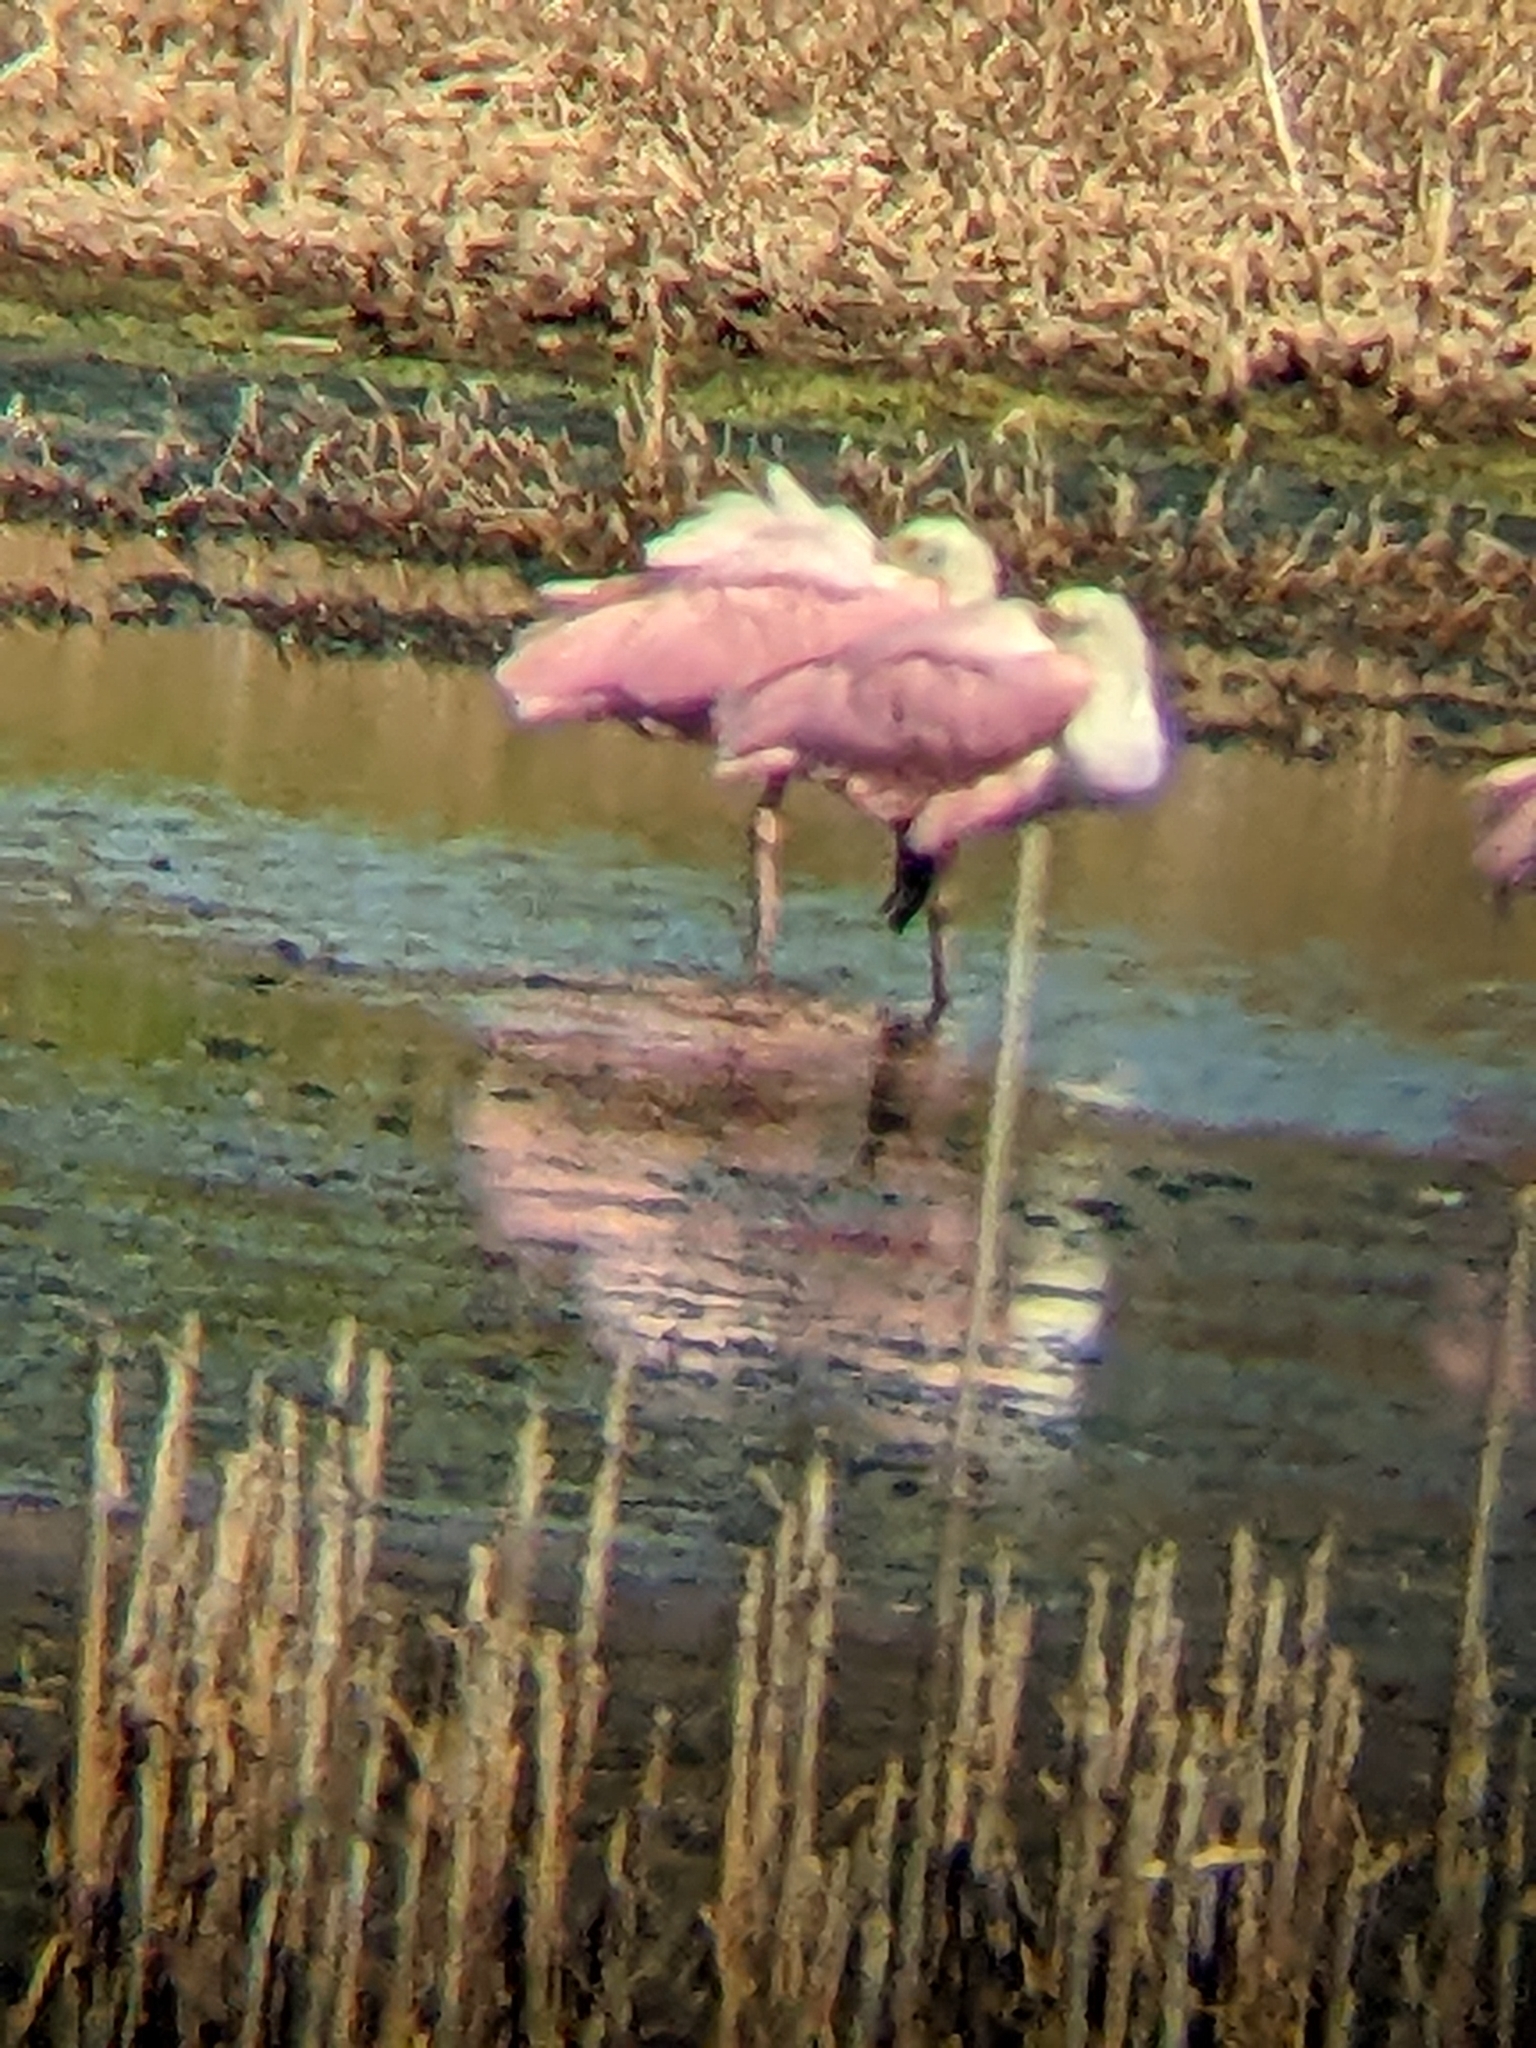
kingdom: Animalia
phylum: Chordata
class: Aves
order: Pelecaniformes
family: Threskiornithidae
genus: Platalea
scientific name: Platalea ajaja
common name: Roseate spoonbill
